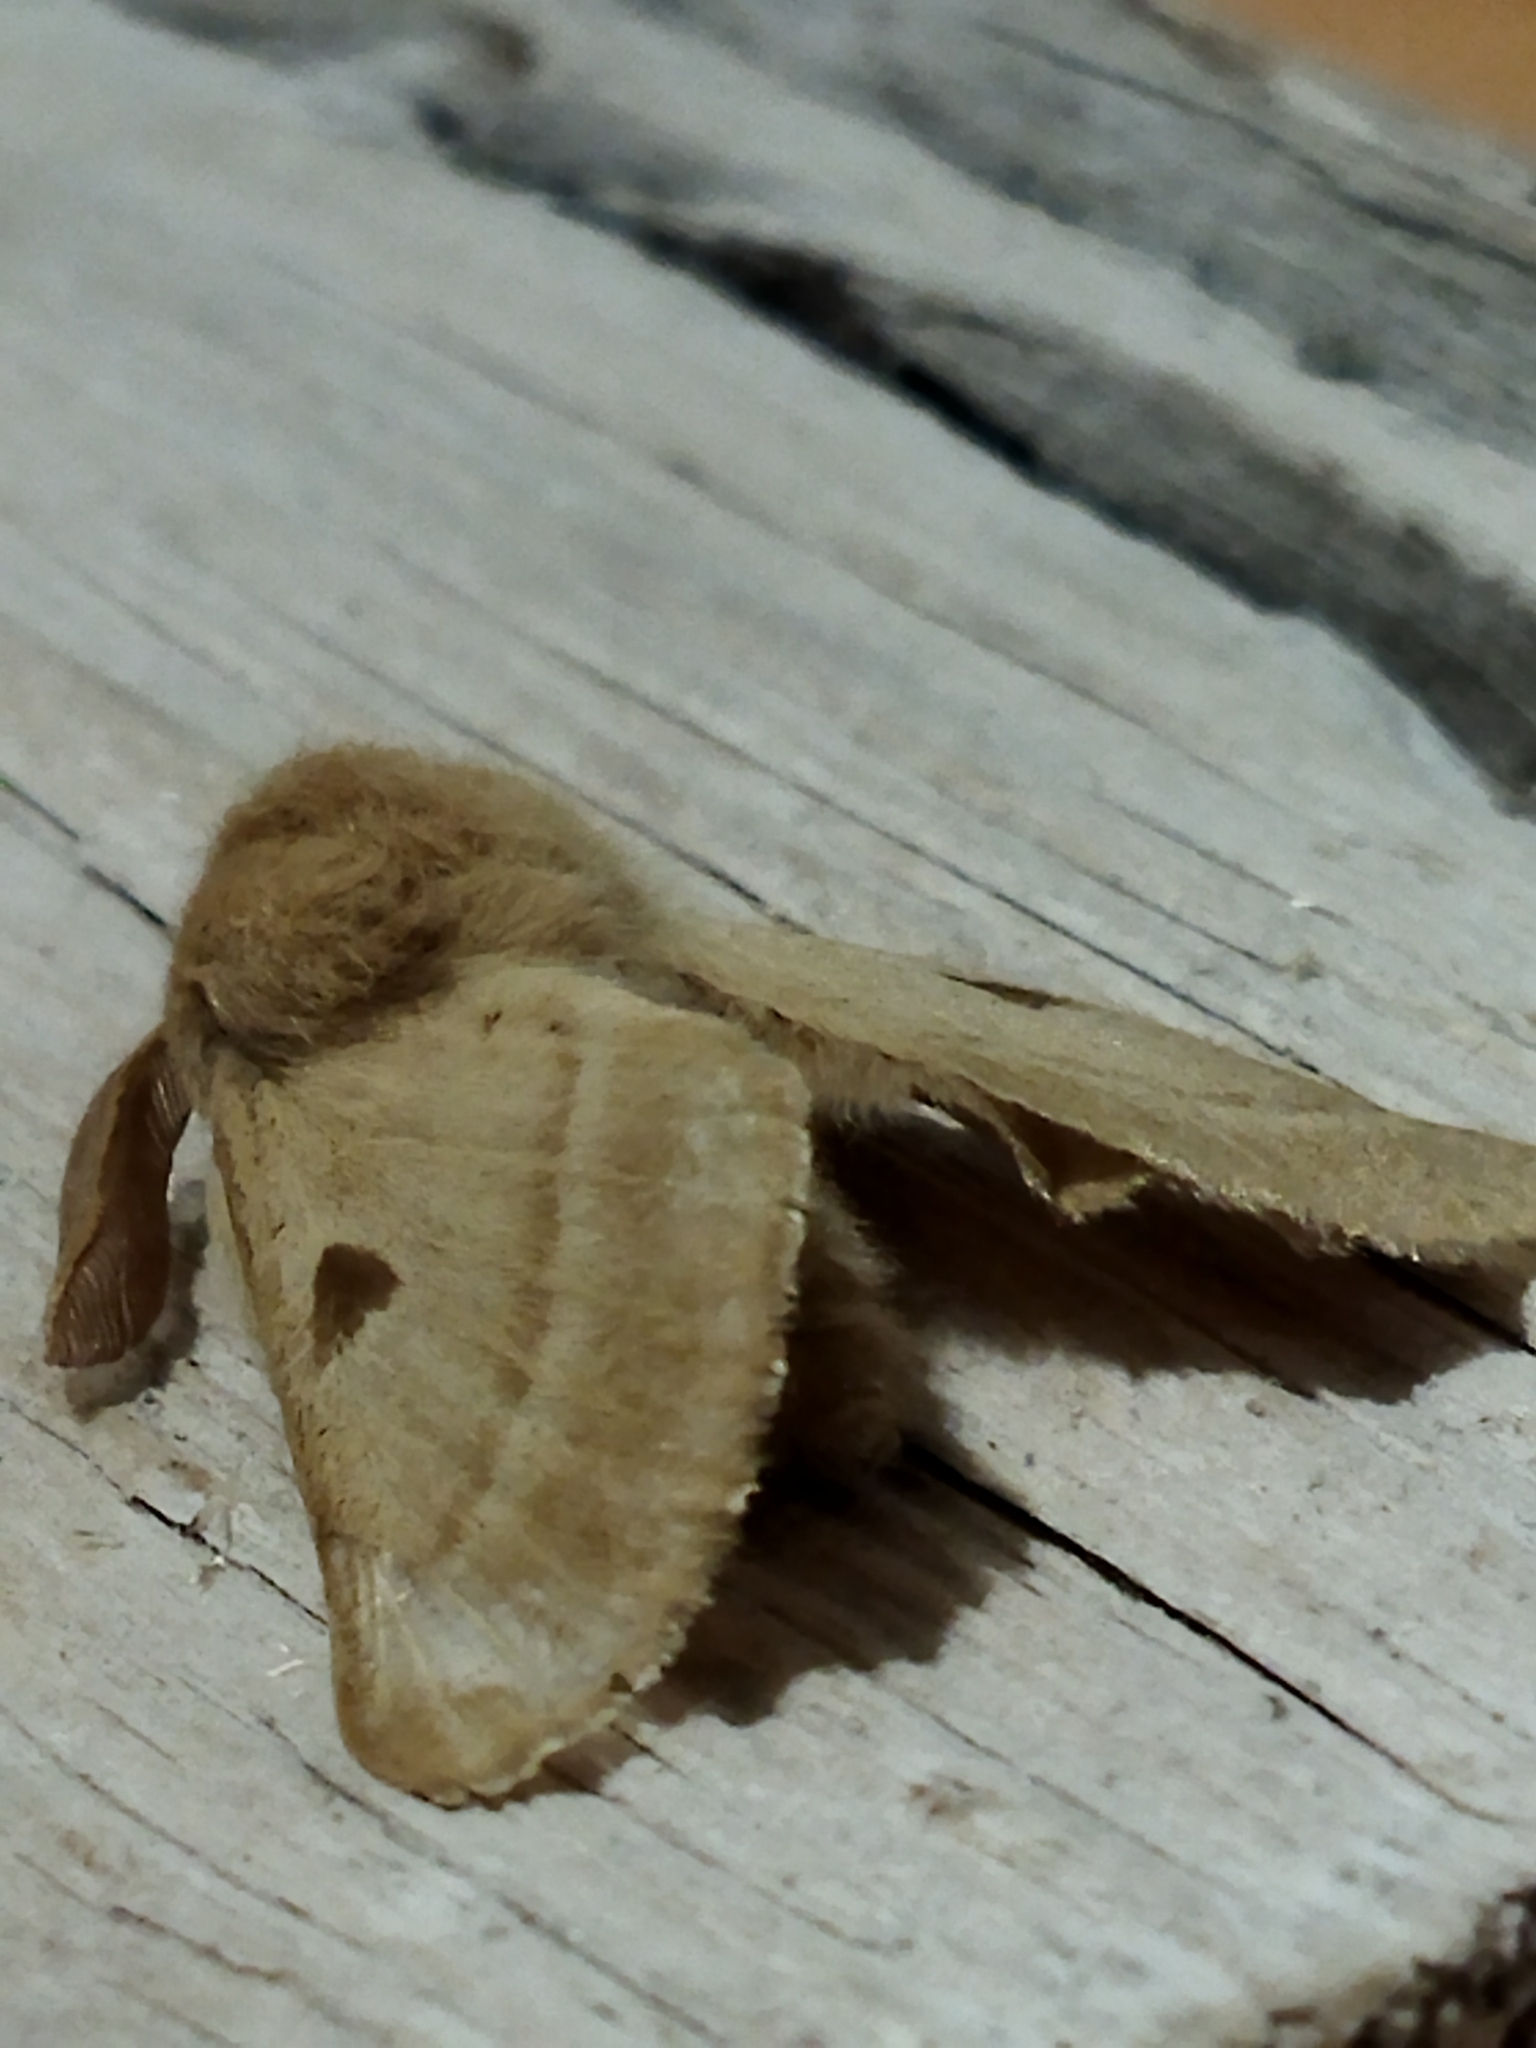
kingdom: Animalia
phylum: Arthropoda
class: Insecta
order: Lepidoptera
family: Brahmaeidae
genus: Lemonia
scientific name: Lemonia balcanica
